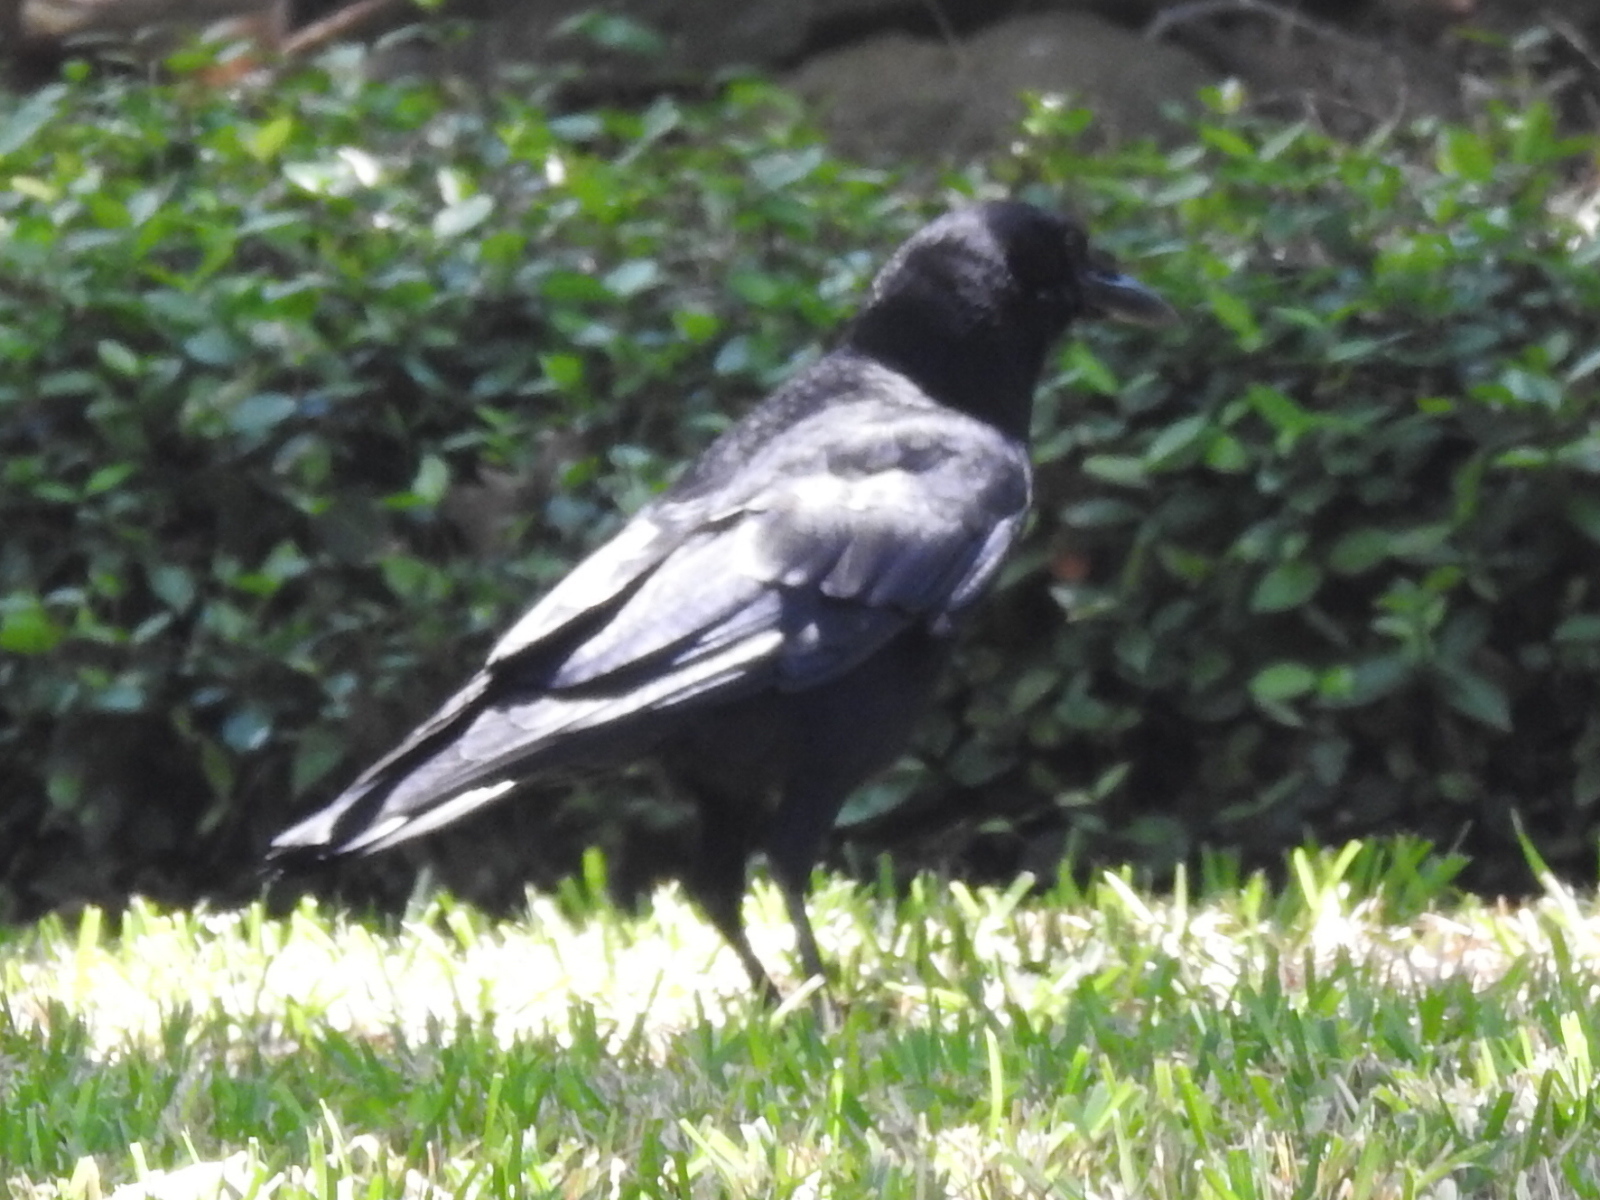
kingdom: Animalia
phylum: Chordata
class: Aves
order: Passeriformes
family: Corvidae
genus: Corvus
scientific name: Corvus brachyrhynchos
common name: American crow
